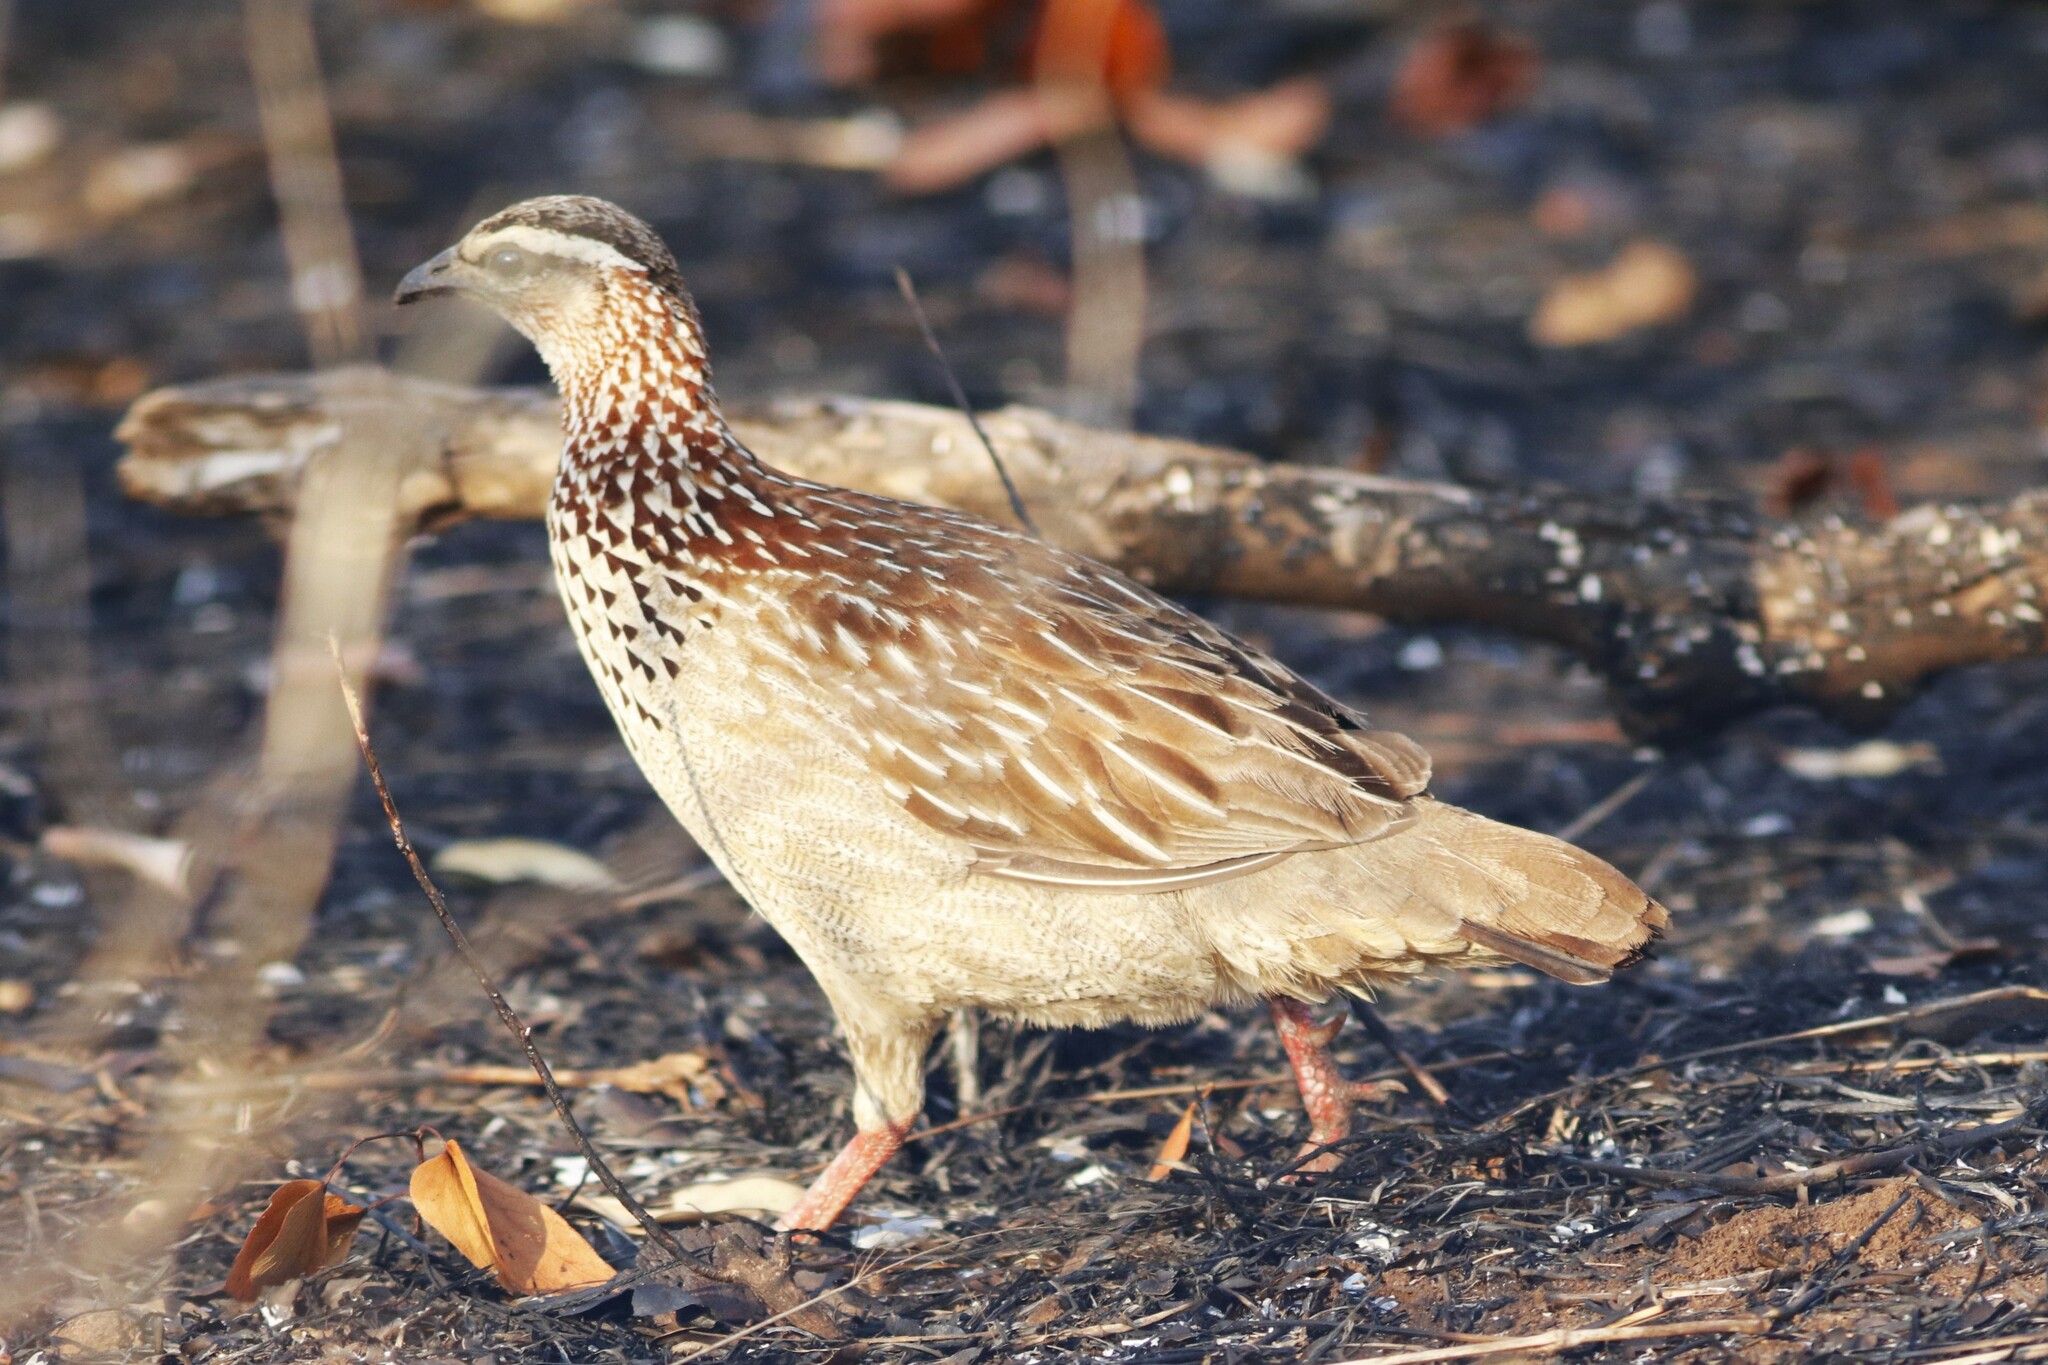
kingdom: Animalia
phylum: Chordata
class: Aves
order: Galliformes
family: Phasianidae
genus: Ortygornis
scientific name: Ortygornis sephaena
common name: Crested francolin
